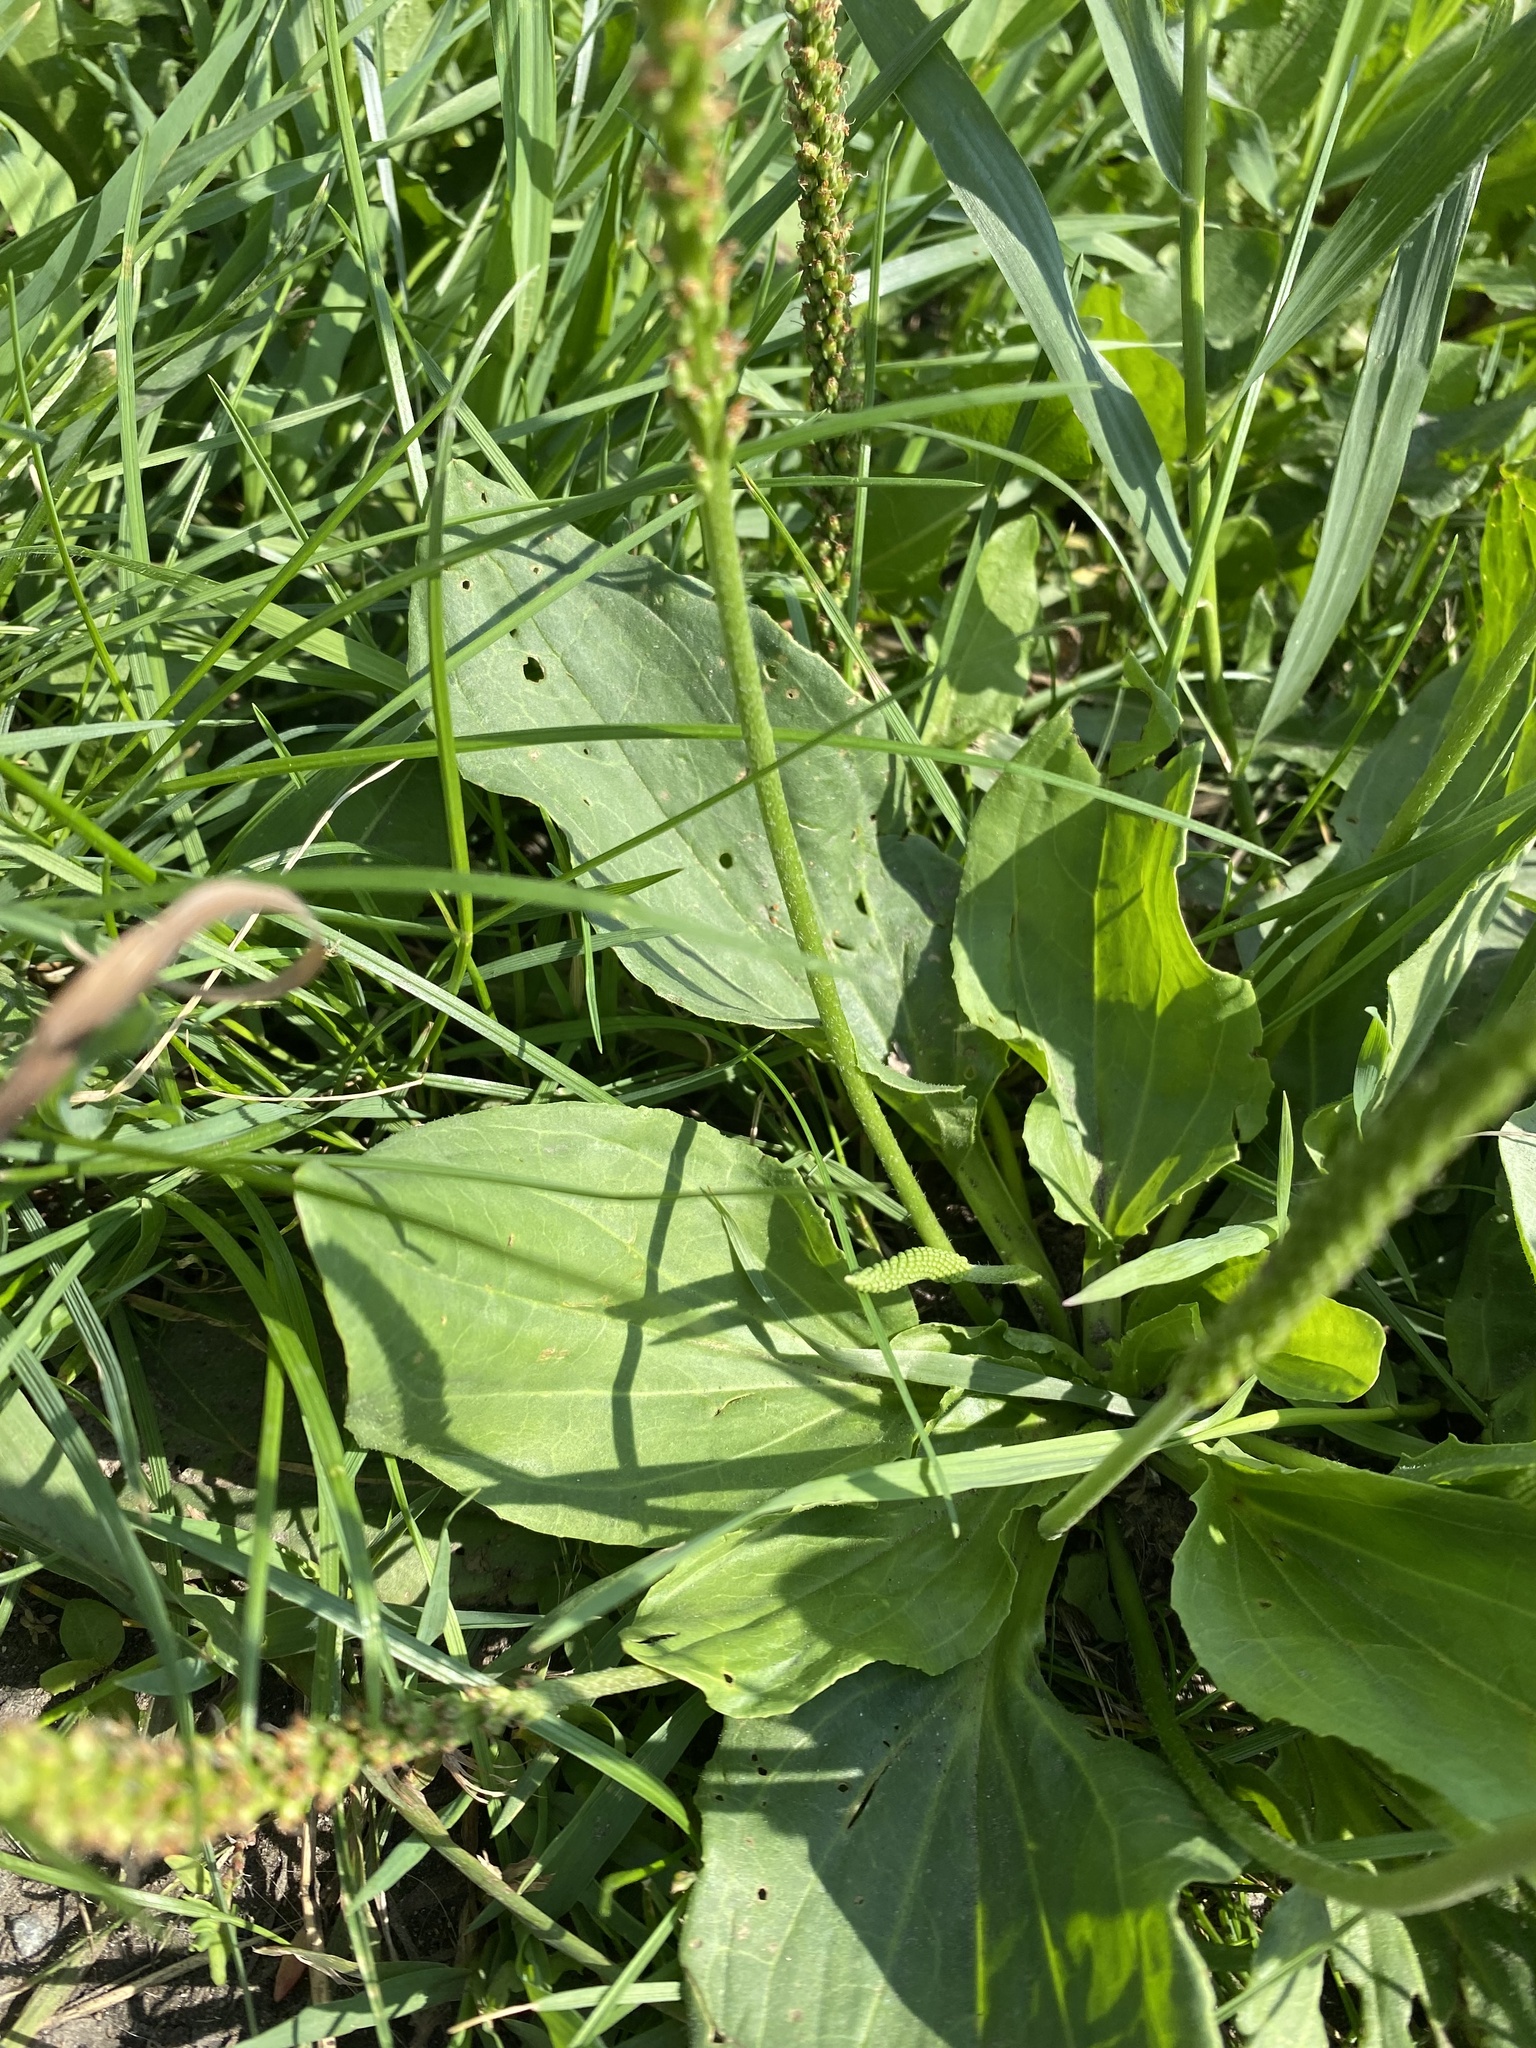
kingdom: Plantae
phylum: Tracheophyta
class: Magnoliopsida
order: Lamiales
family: Plantaginaceae
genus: Plantago
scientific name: Plantago major
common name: Common plantain
